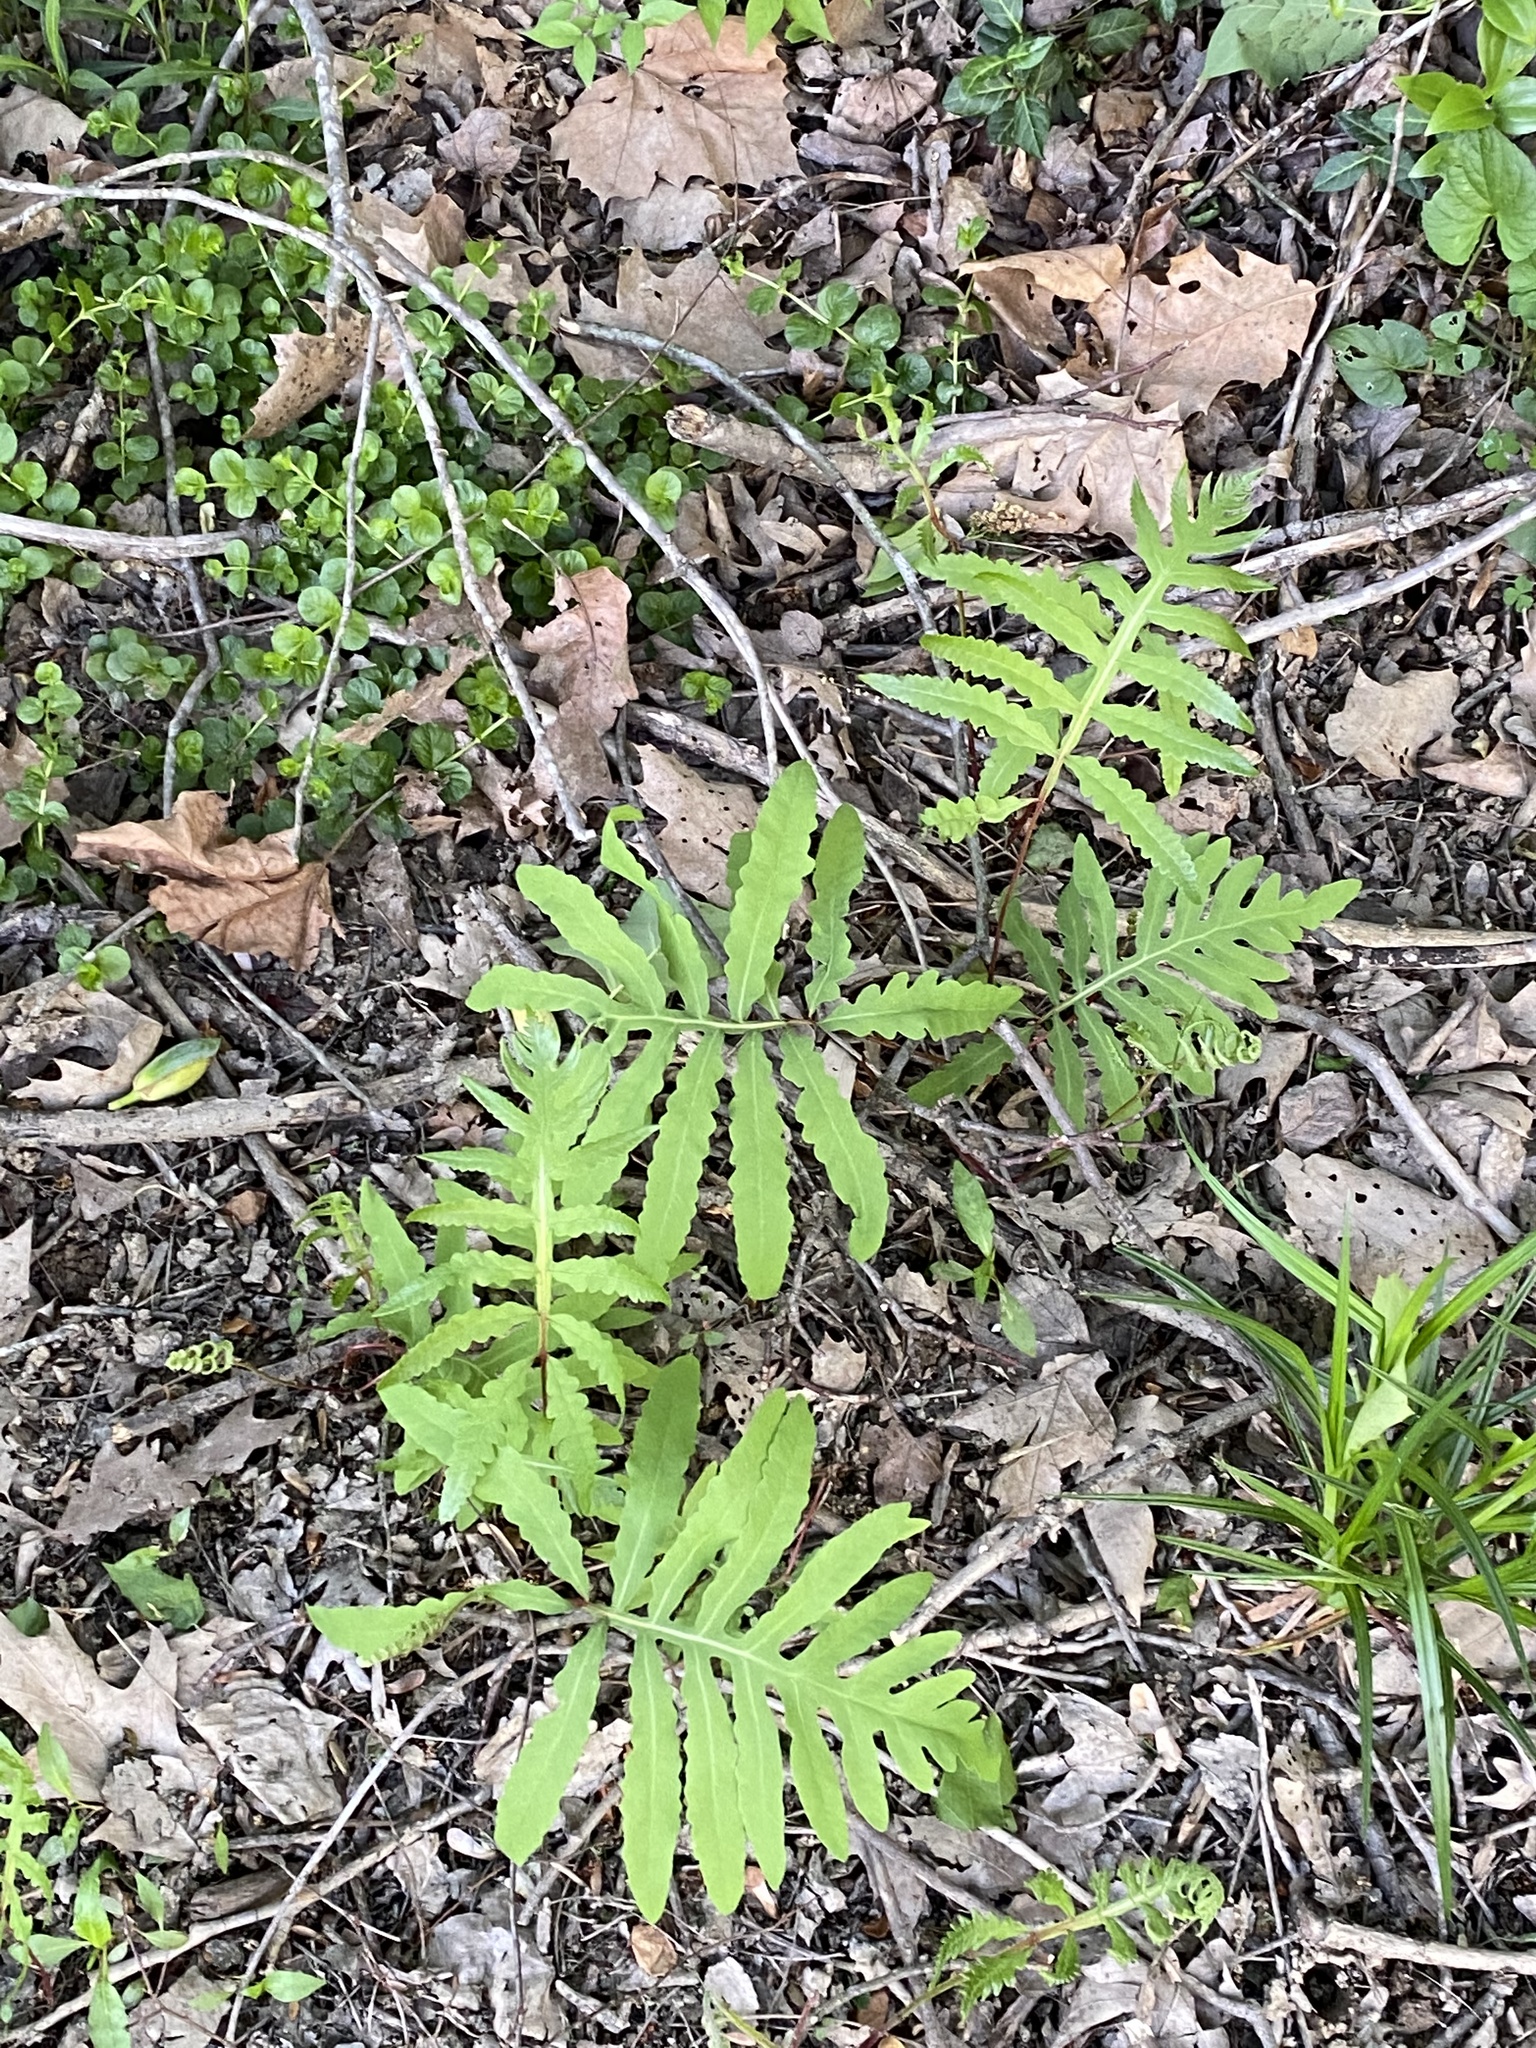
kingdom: Plantae
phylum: Tracheophyta
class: Polypodiopsida
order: Polypodiales
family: Onocleaceae
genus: Onoclea
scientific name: Onoclea sensibilis
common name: Sensitive fern
